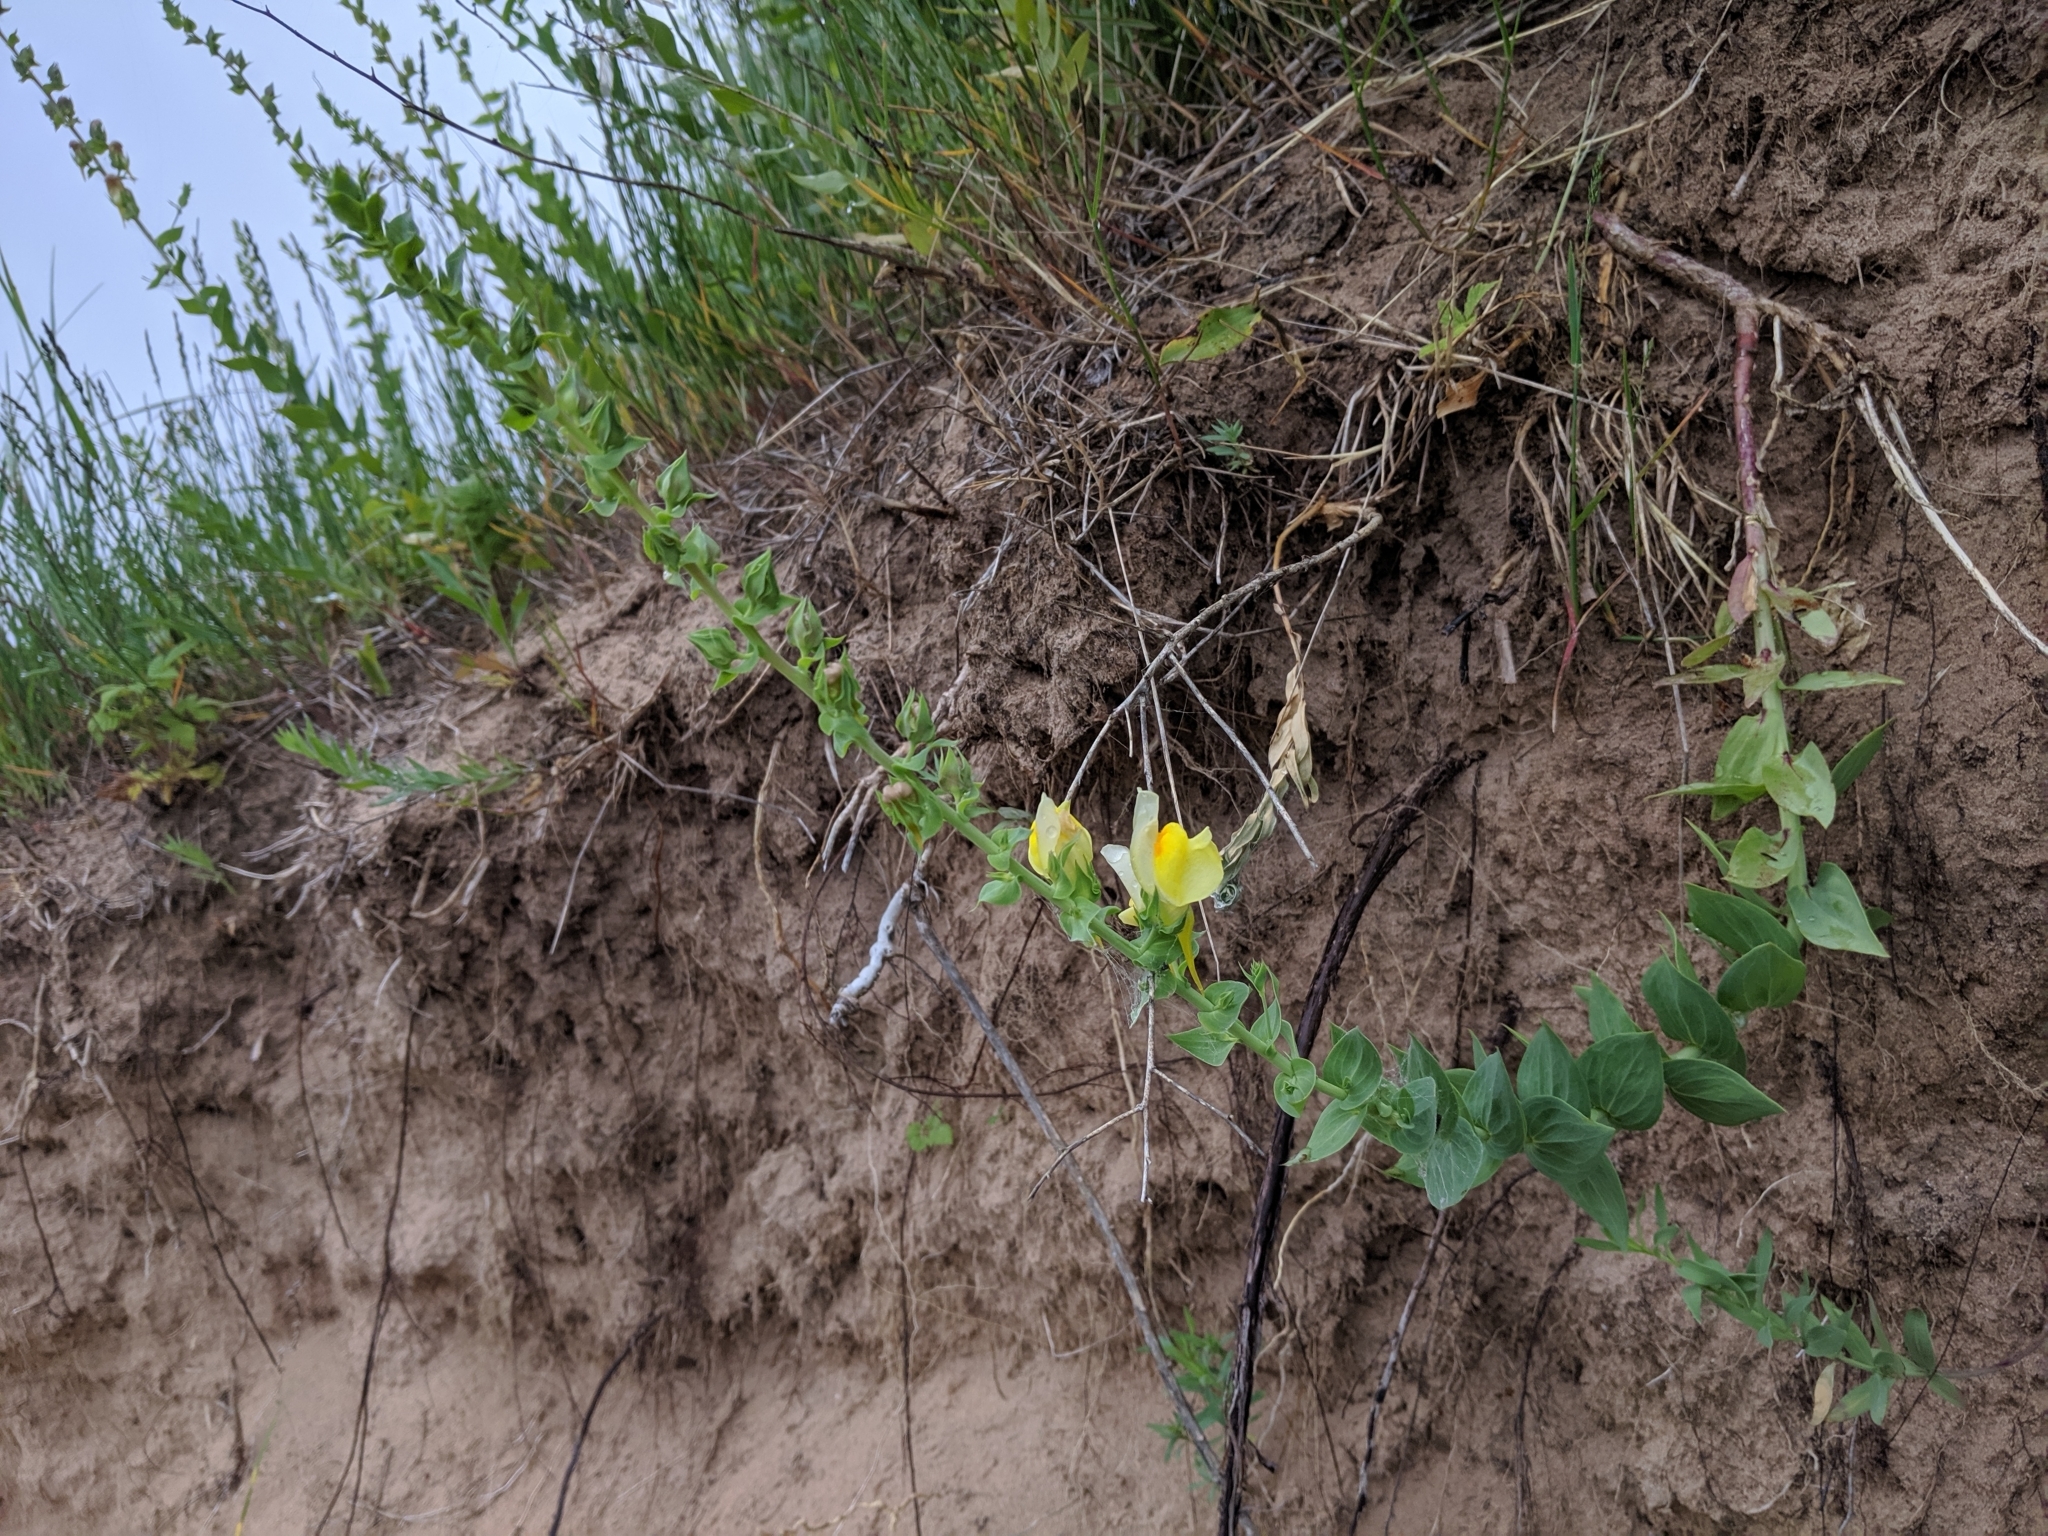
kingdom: Plantae
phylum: Tracheophyta
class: Magnoliopsida
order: Lamiales
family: Plantaginaceae
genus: Linaria
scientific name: Linaria dalmatica
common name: Dalmatian toadflax
